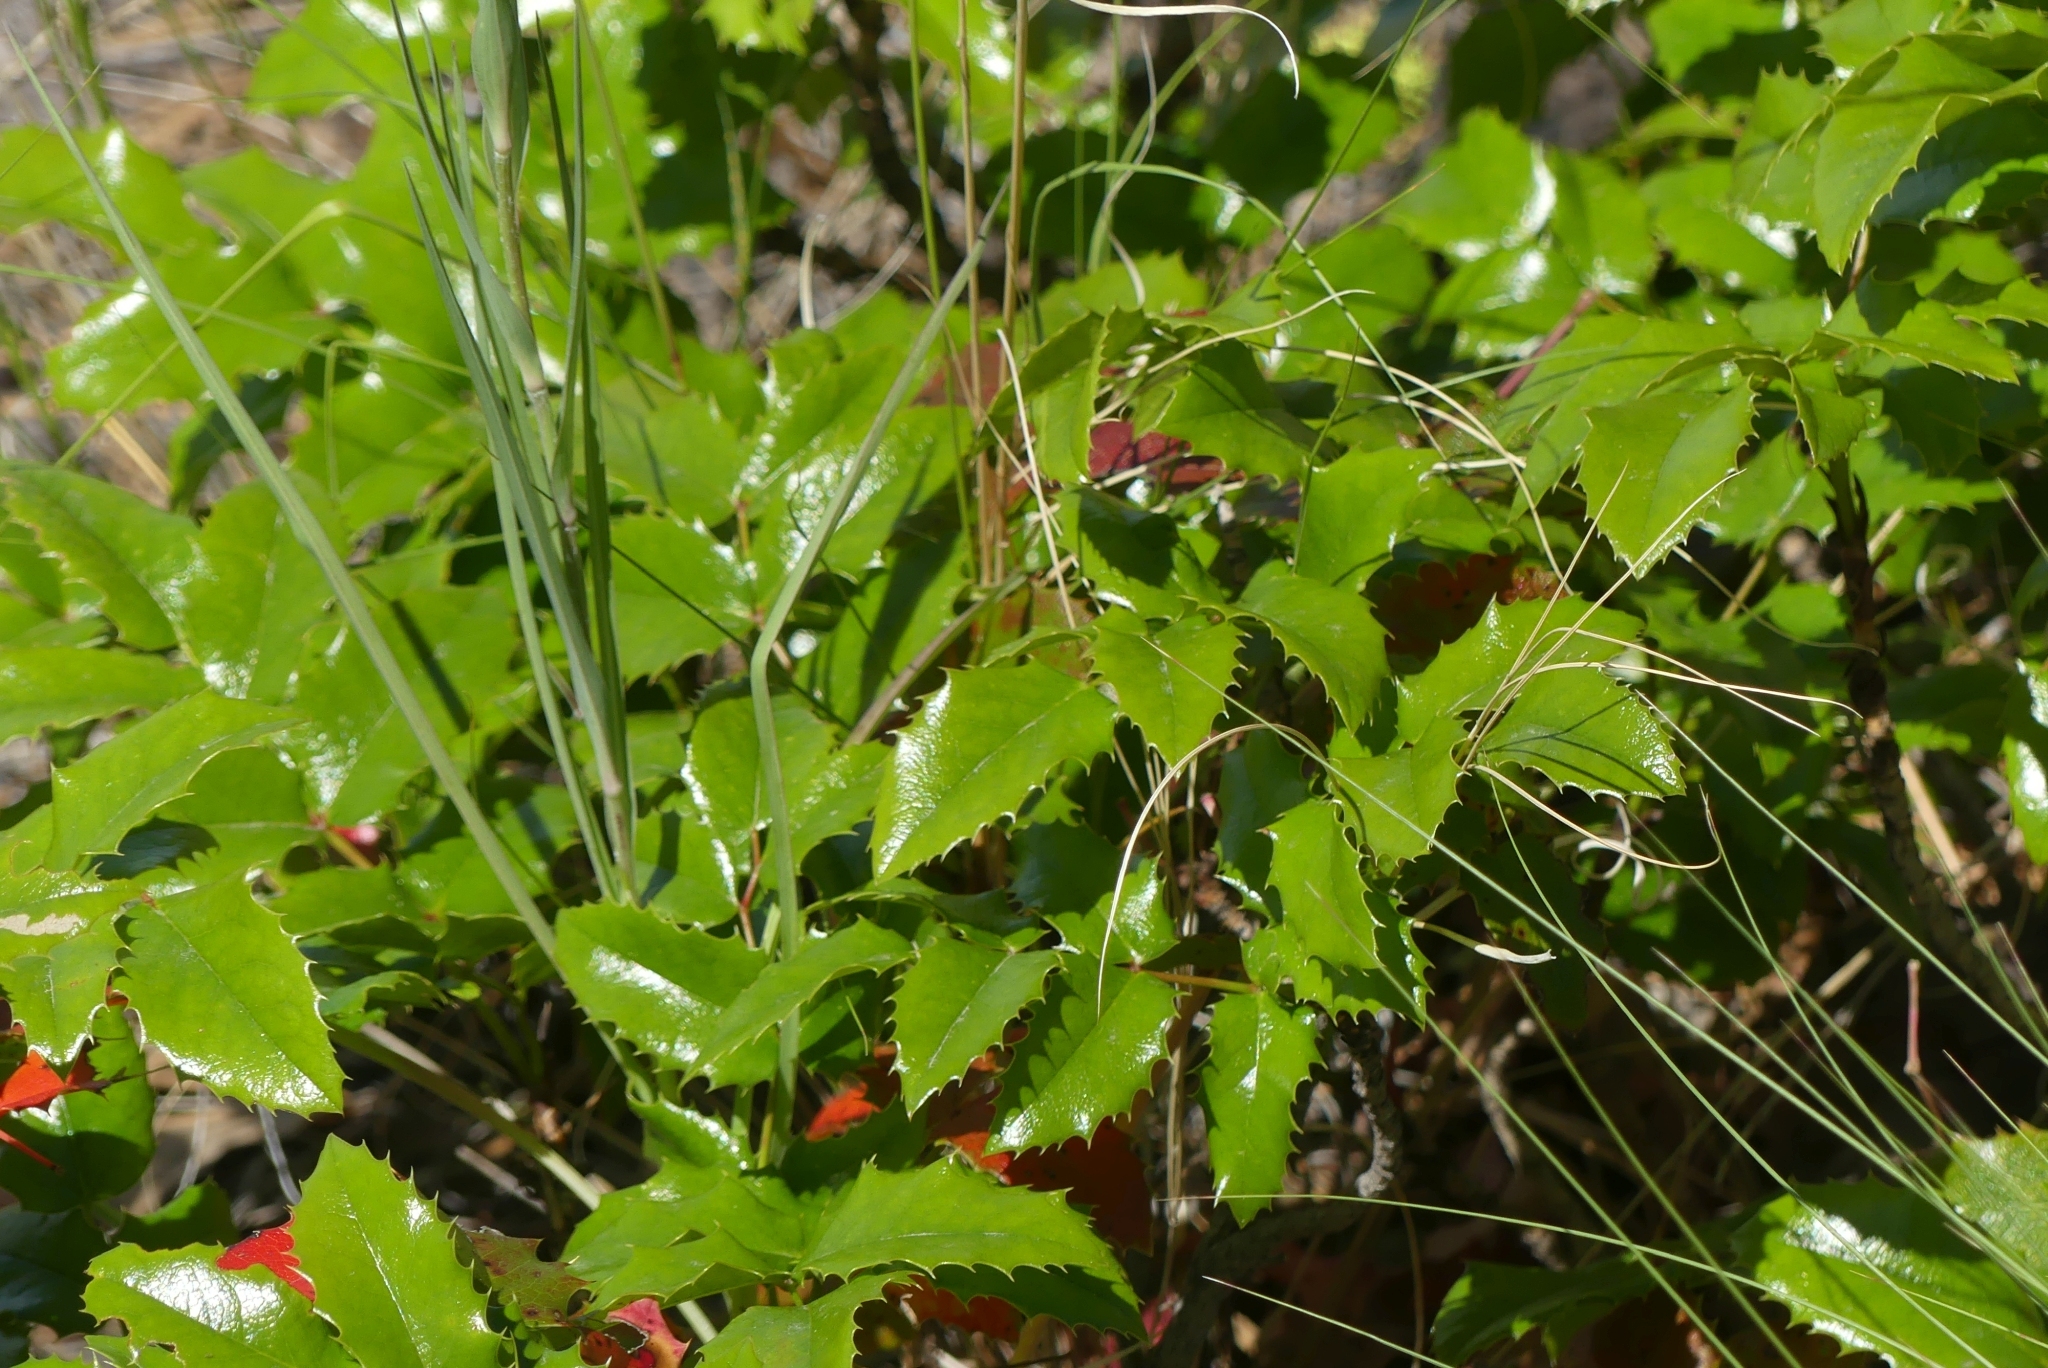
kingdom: Plantae
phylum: Tracheophyta
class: Magnoliopsida
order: Ranunculales
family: Berberidaceae
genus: Mahonia
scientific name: Mahonia aquifolium
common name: Oregon-grape
